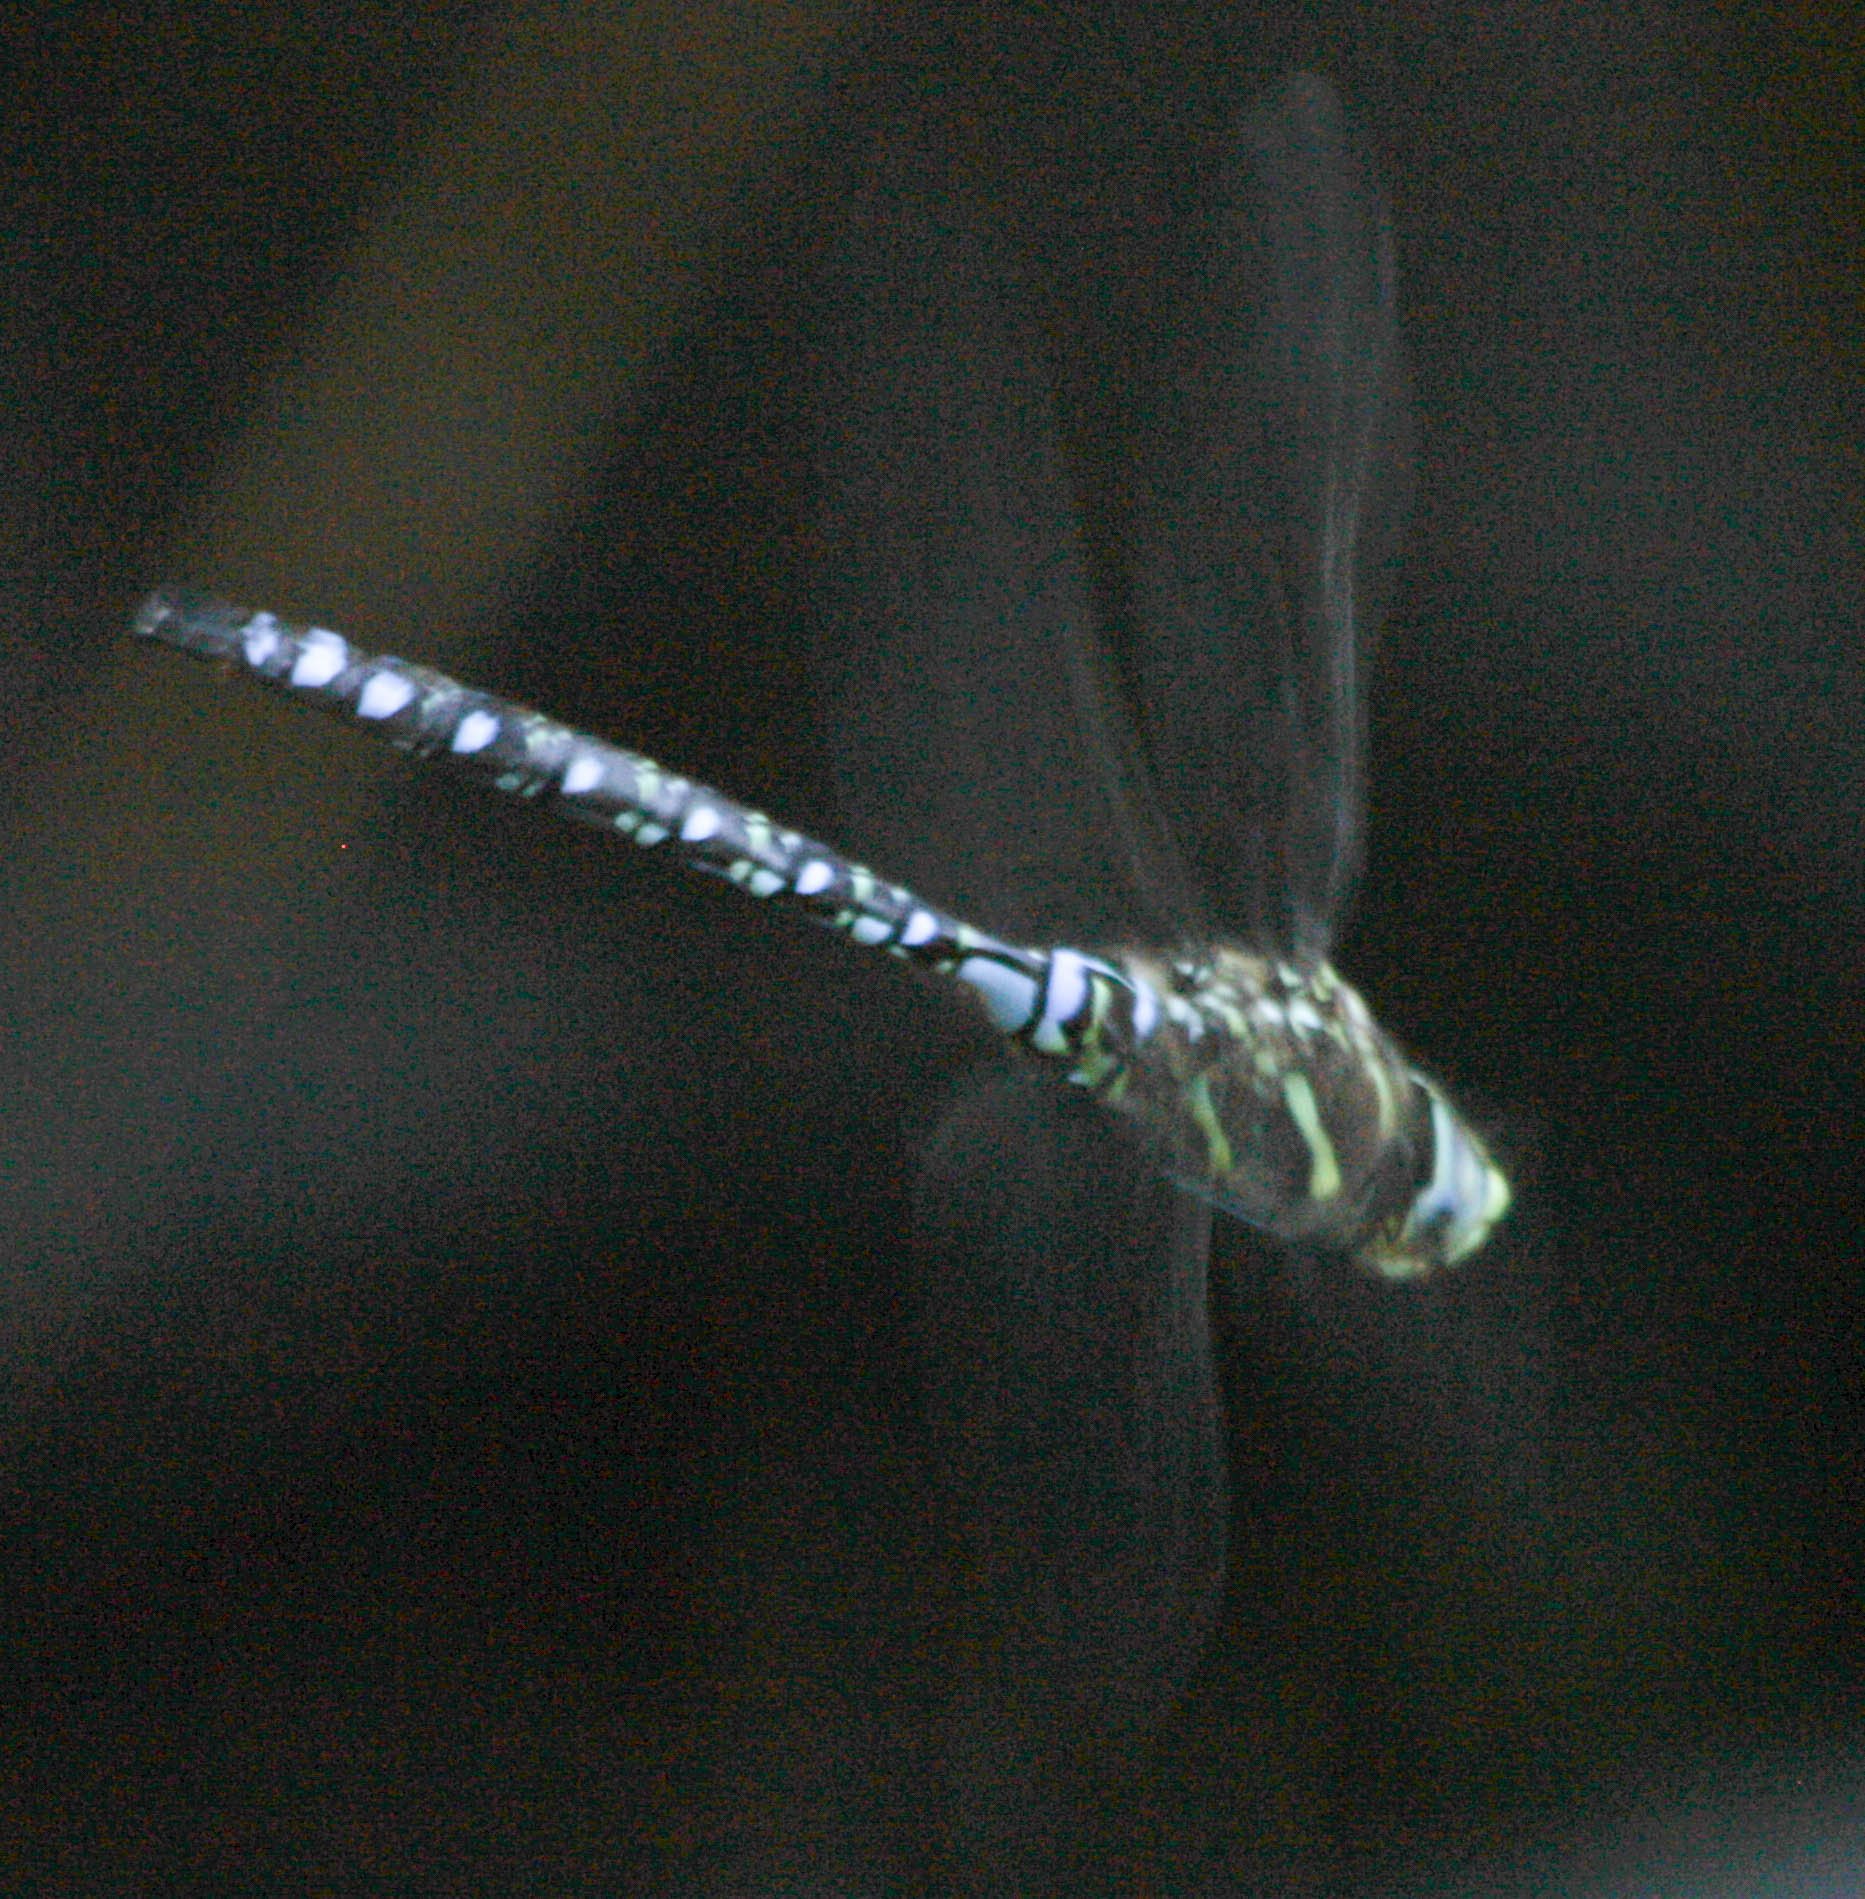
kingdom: Animalia
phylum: Arthropoda
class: Insecta
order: Odonata
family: Aeshnidae
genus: Aeshna
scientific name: Aeshna palmata
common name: Paddle-tailed darner
